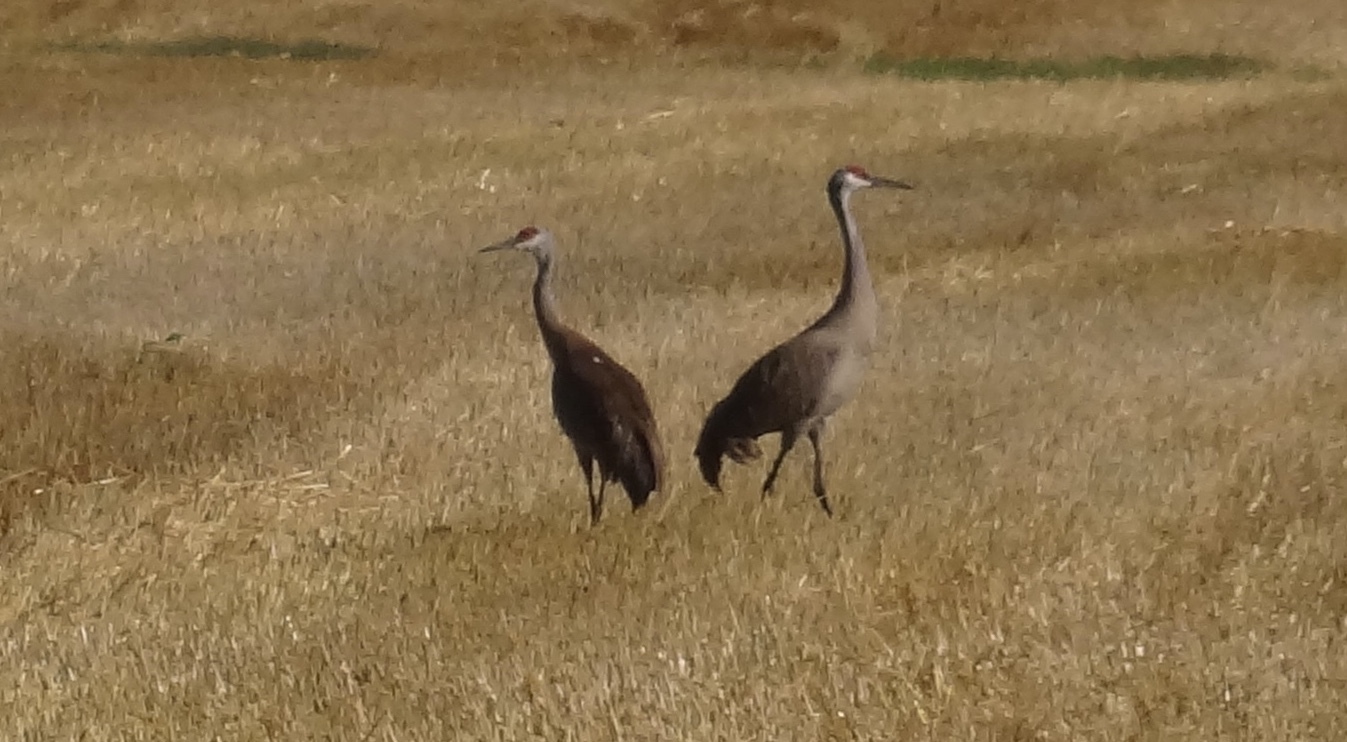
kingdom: Animalia
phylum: Chordata
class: Aves
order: Gruiformes
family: Gruidae
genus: Grus
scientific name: Grus canadensis
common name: Sandhill crane
